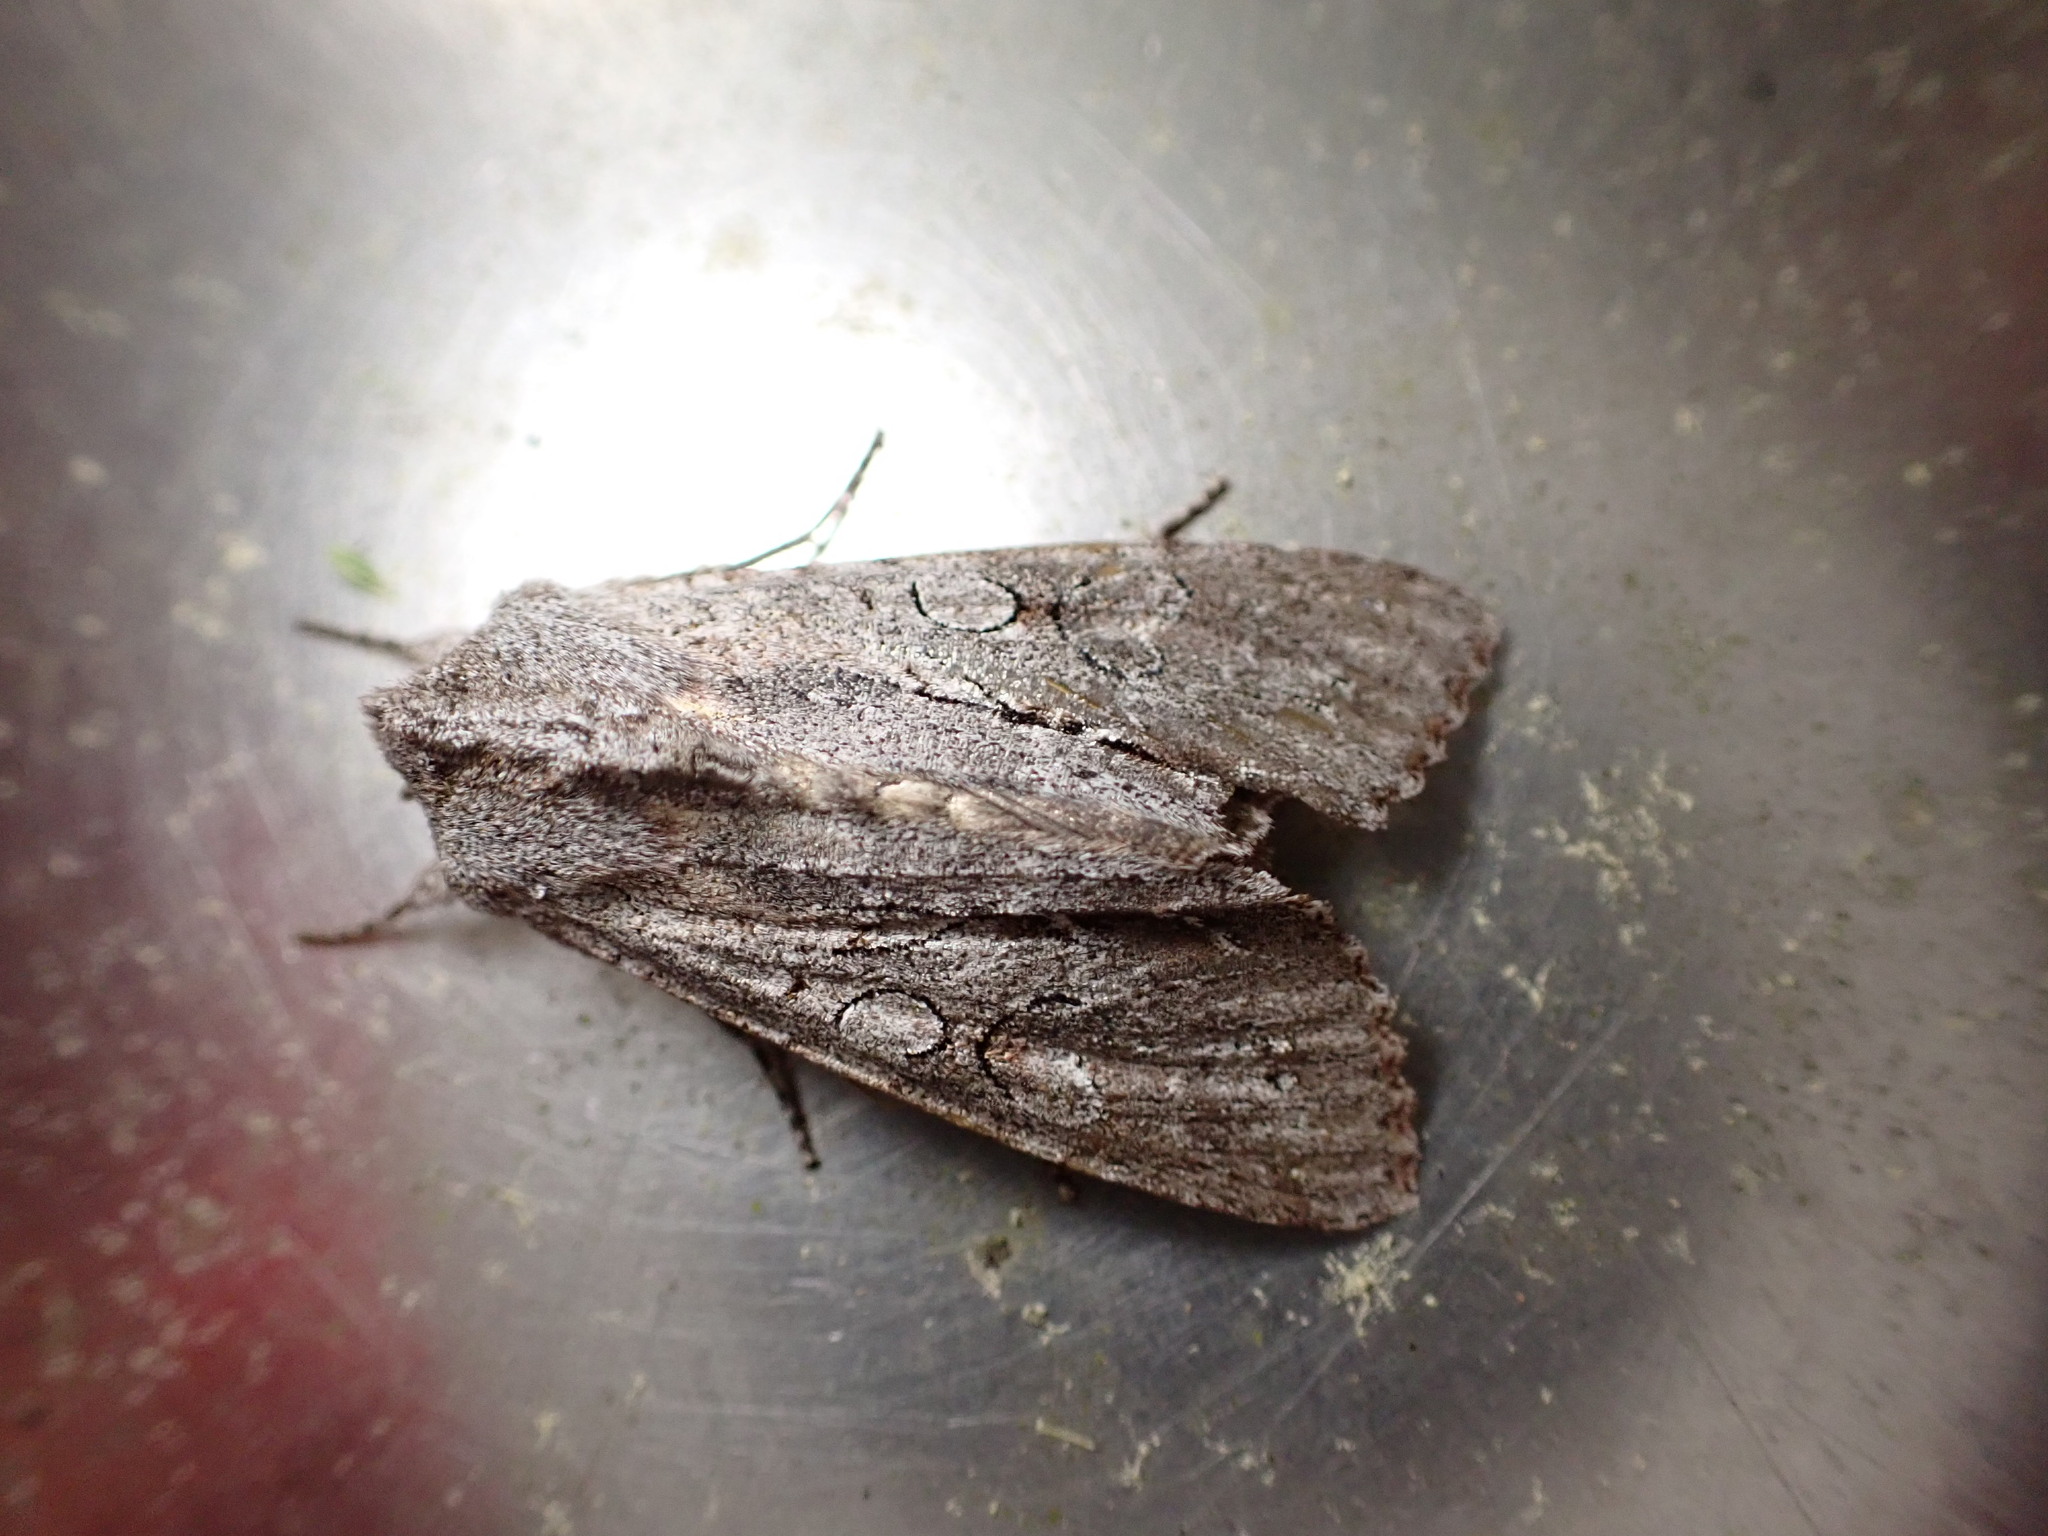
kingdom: Animalia
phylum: Arthropoda
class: Insecta
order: Lepidoptera
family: Noctuidae
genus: Ichneutica
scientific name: Ichneutica
